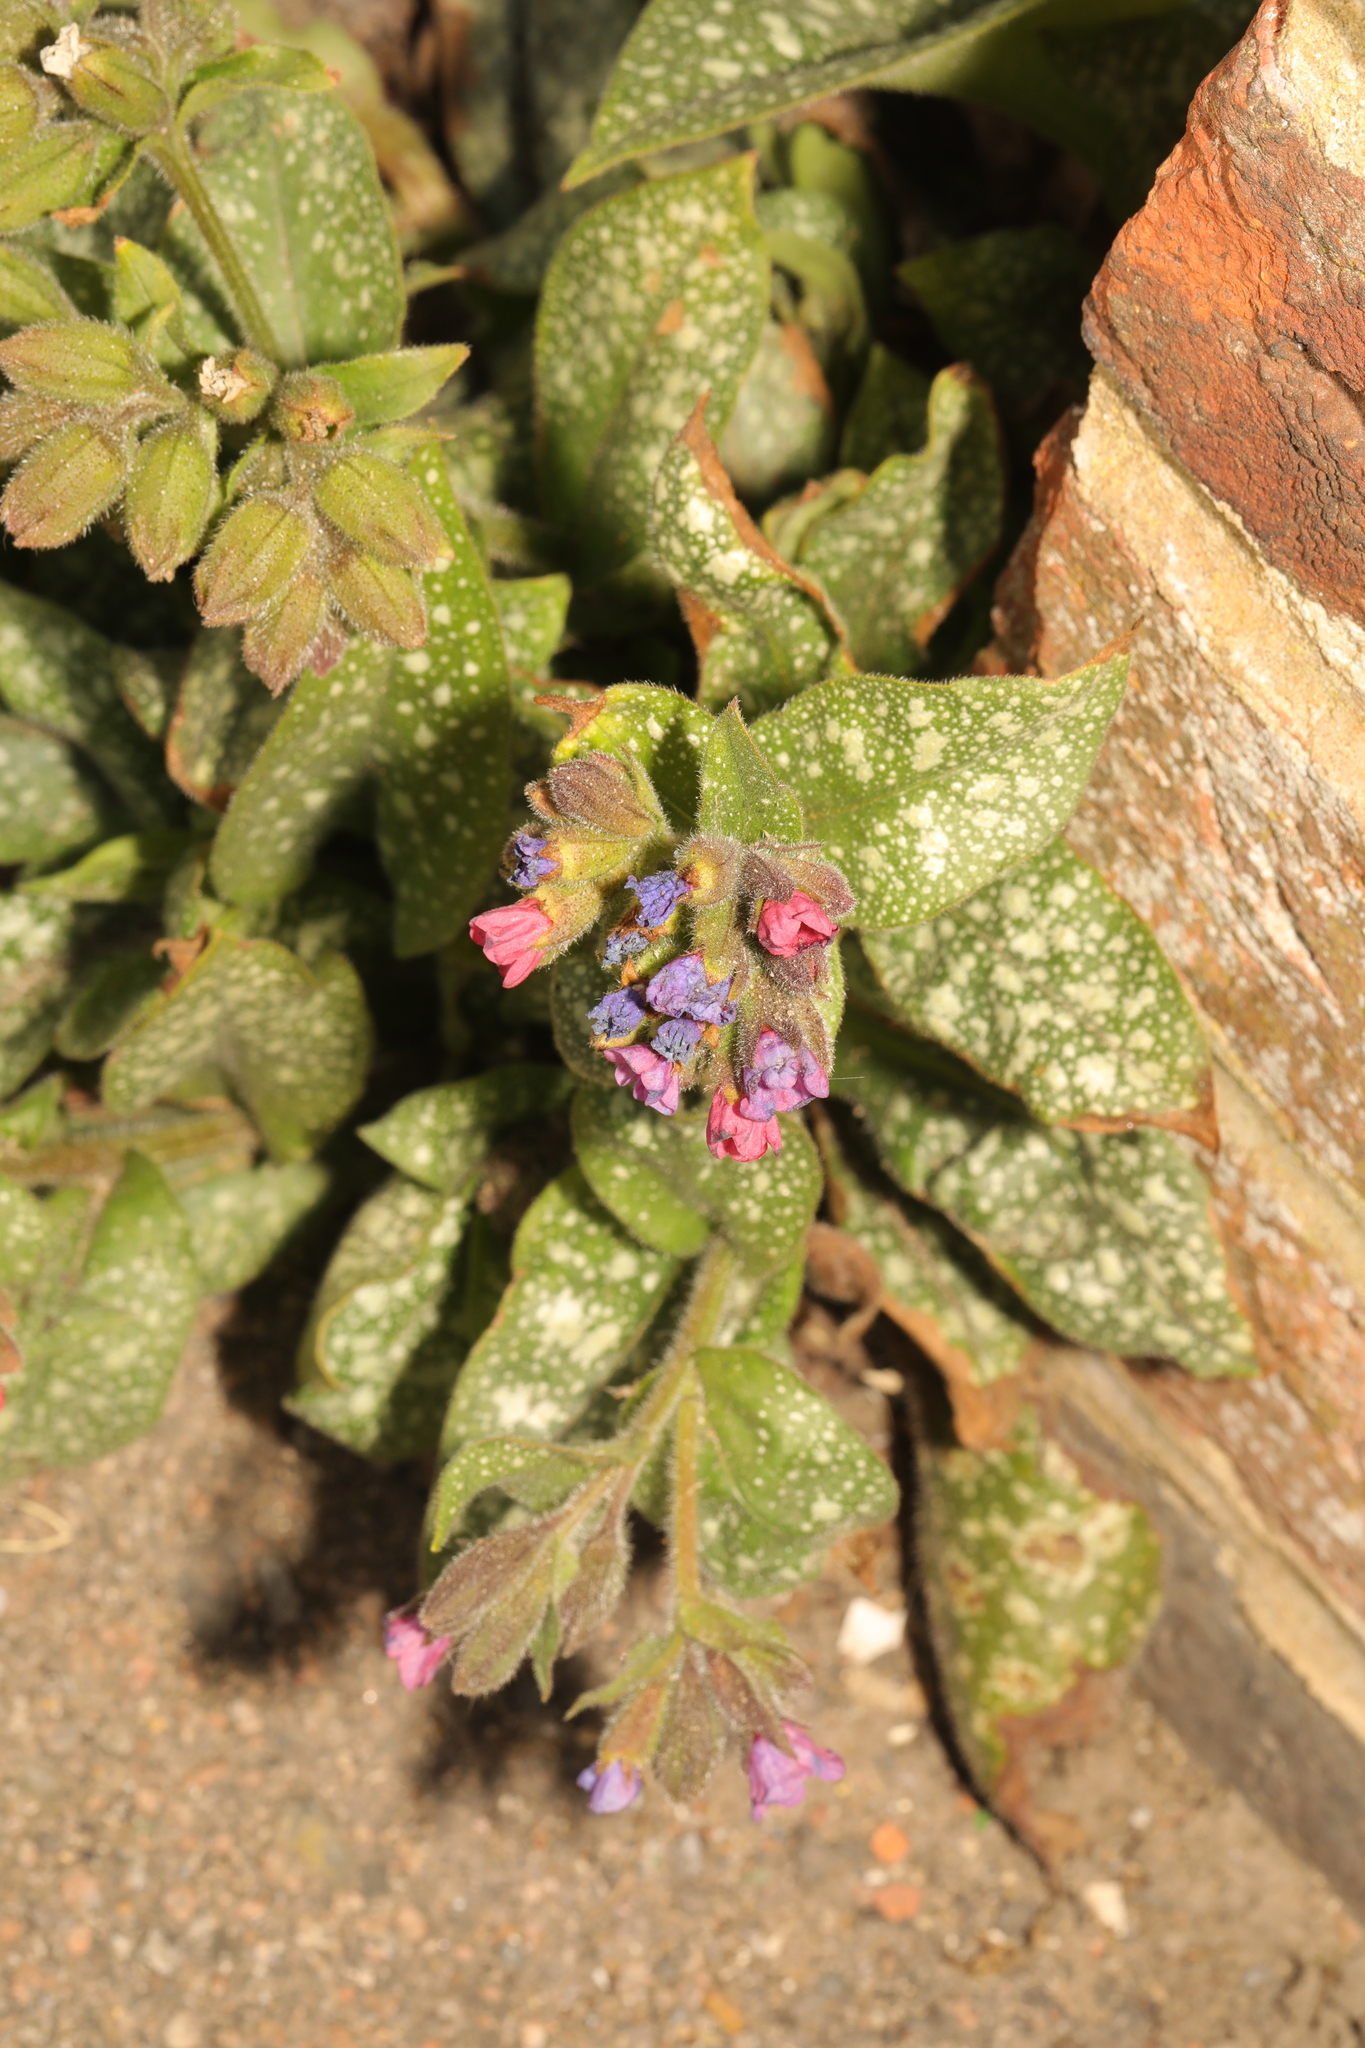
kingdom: Plantae
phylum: Tracheophyta
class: Magnoliopsida
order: Boraginales
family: Boraginaceae
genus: Pulmonaria
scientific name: Pulmonaria officinalis
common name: Lungwort
